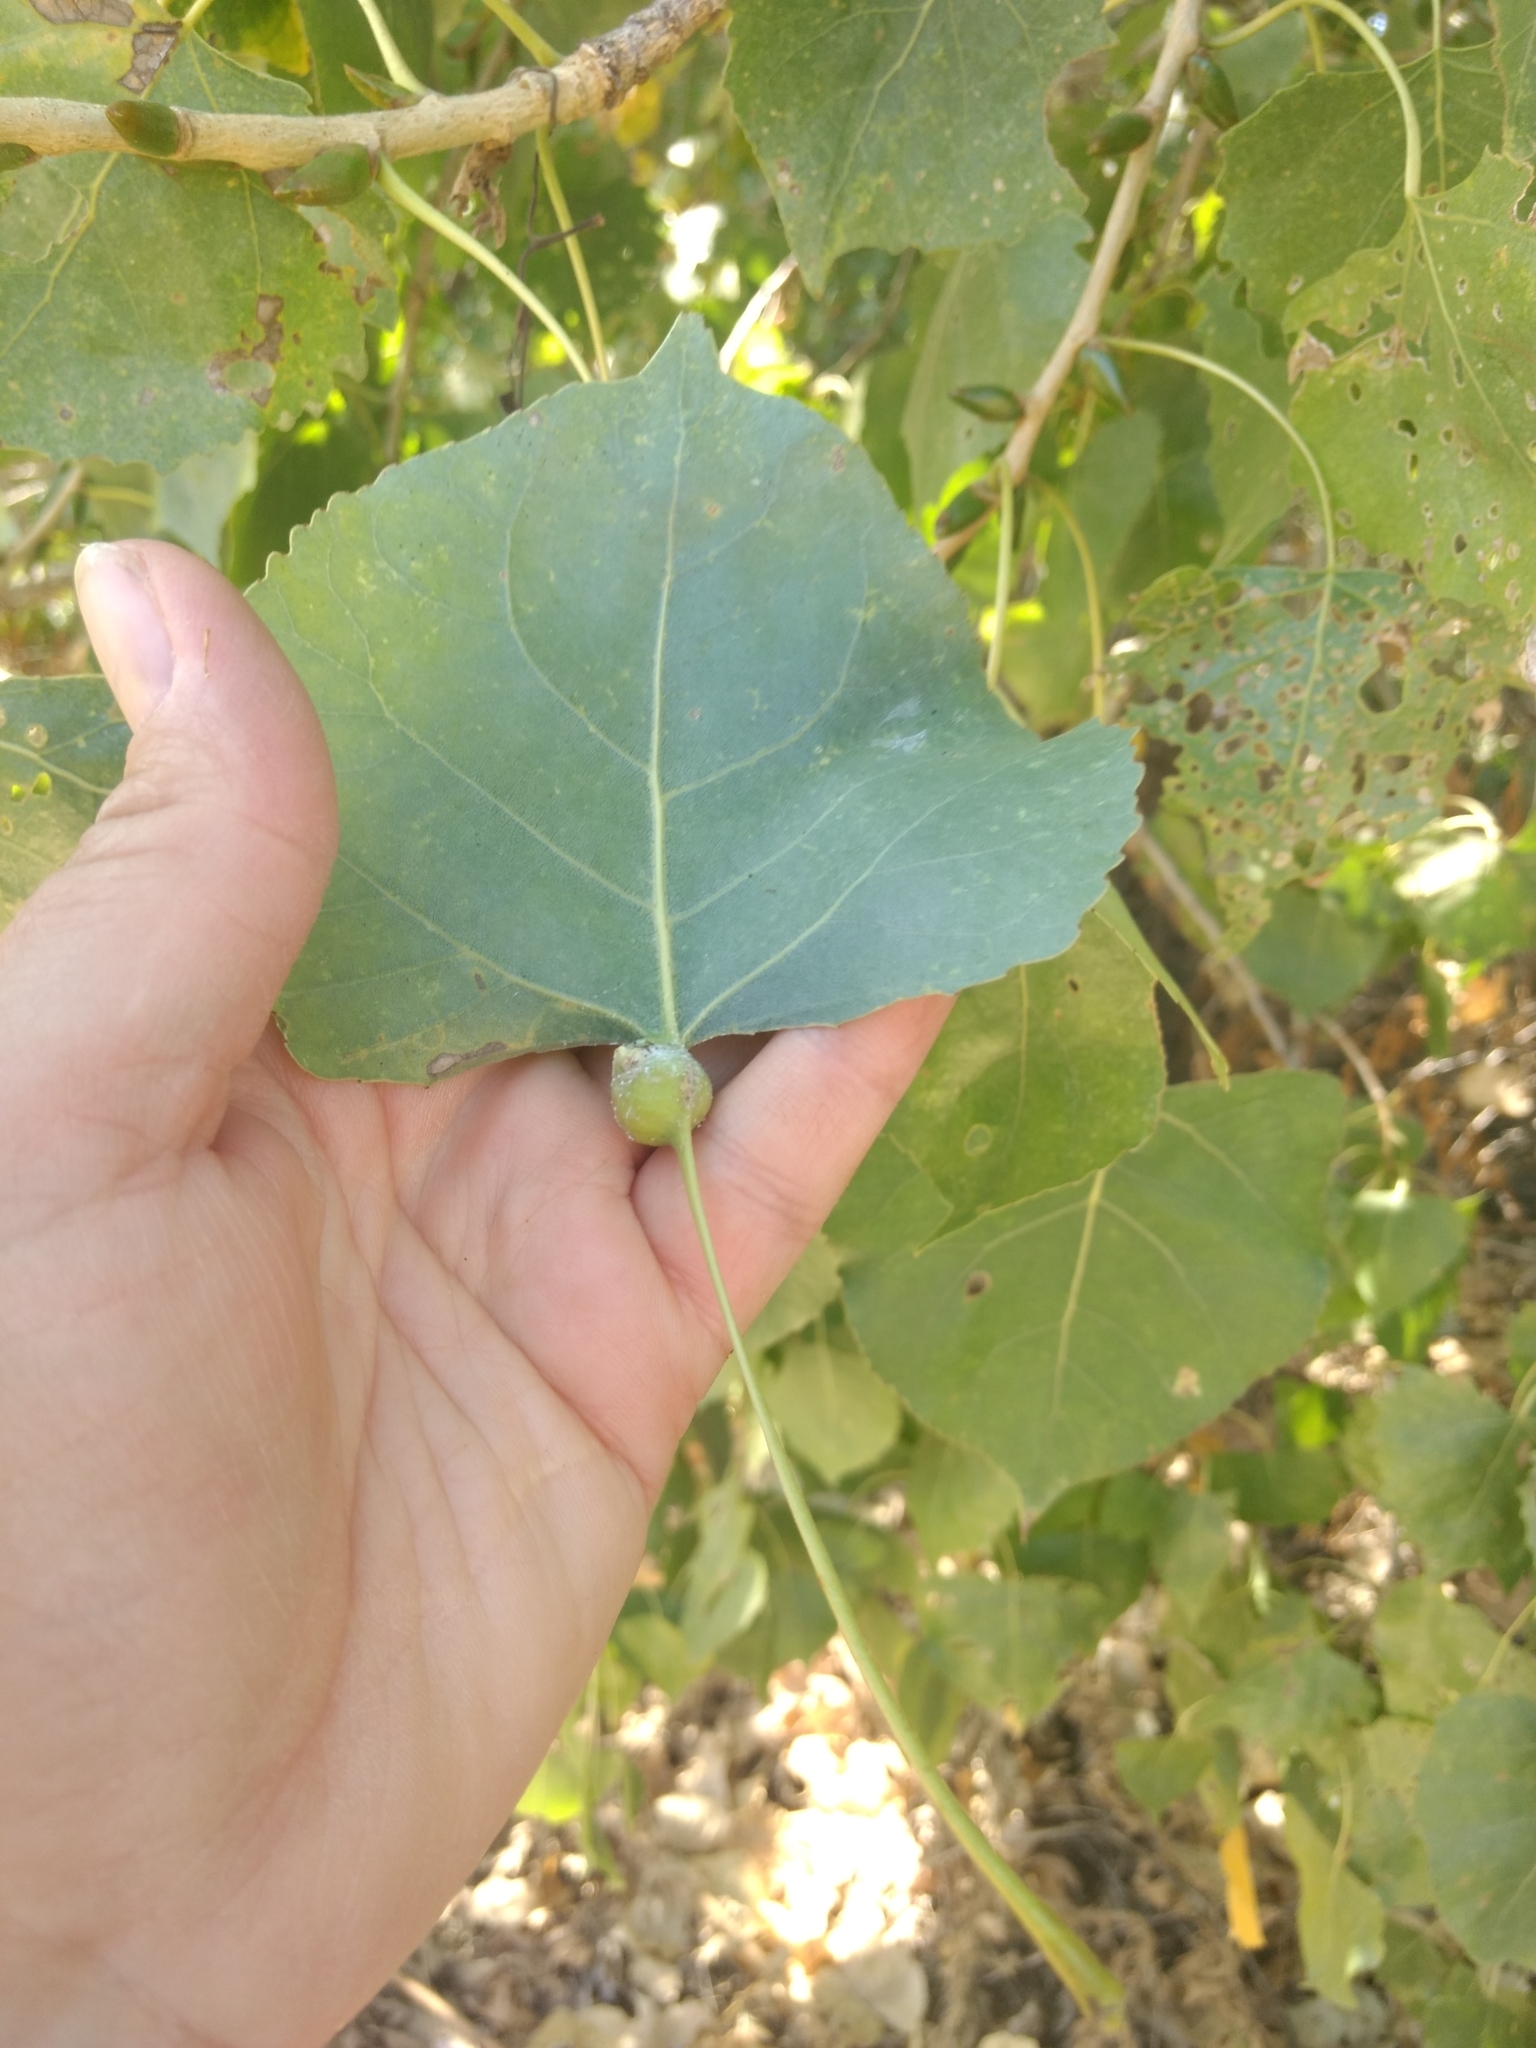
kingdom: Animalia
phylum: Arthropoda
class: Insecta
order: Hemiptera
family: Aphididae
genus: Pemphigus
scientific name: Pemphigus obesinymphae
